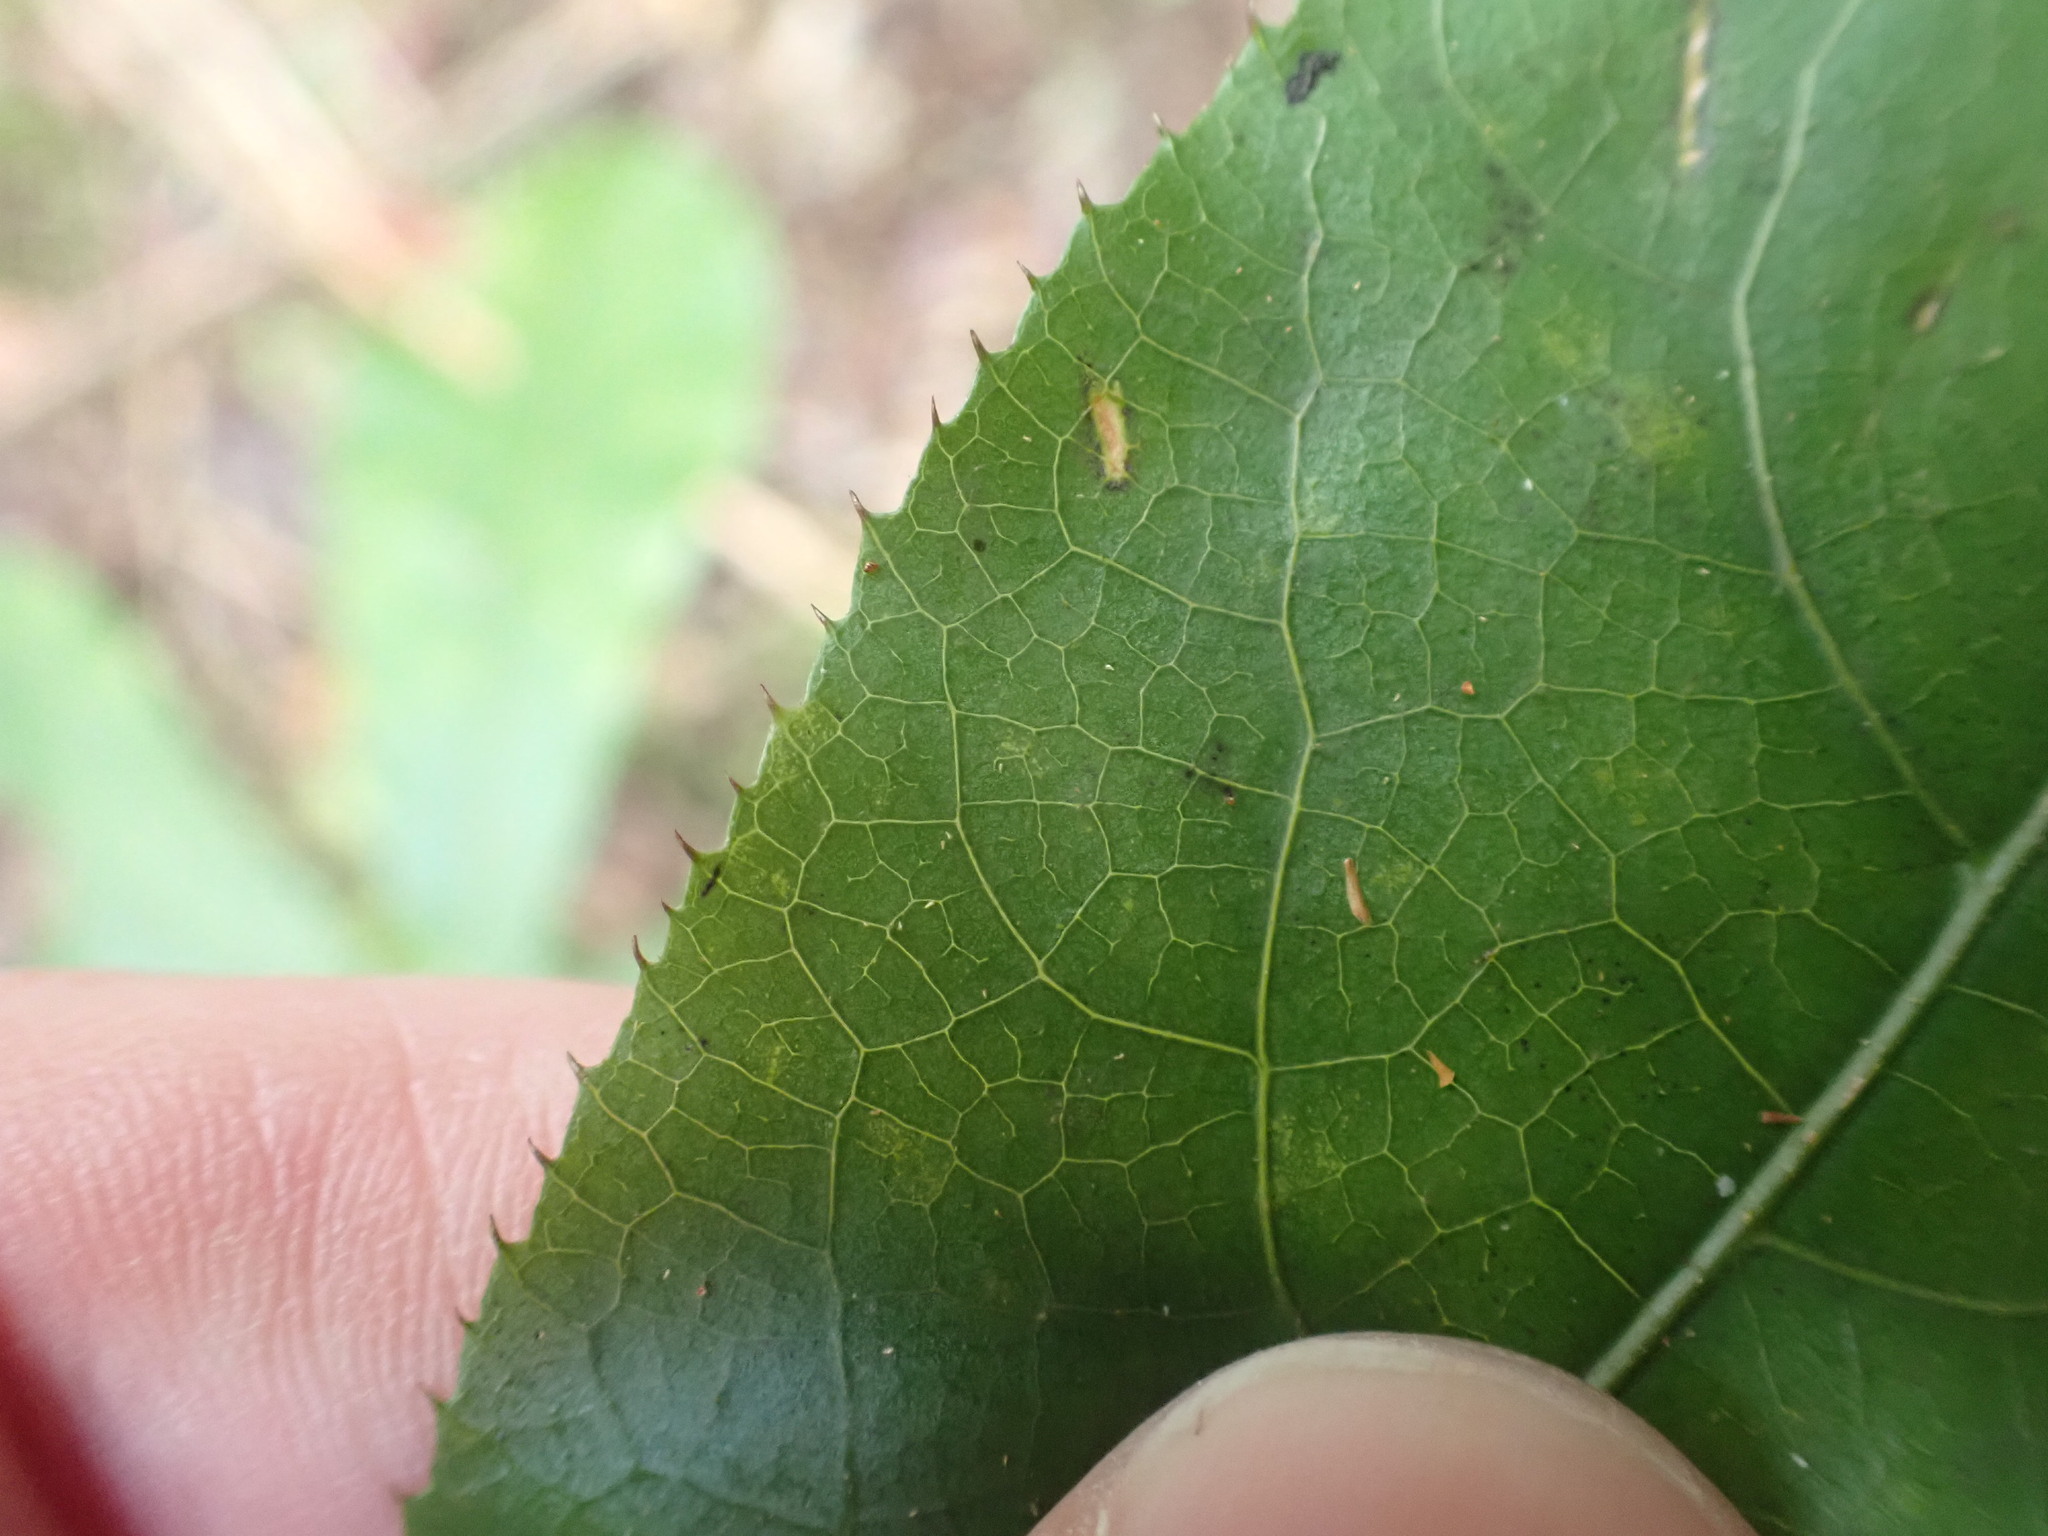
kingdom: Plantae
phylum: Tracheophyta
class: Magnoliopsida
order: Apiales
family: Araliaceae
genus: Schefflera
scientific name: Schefflera digitata
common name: Pate
